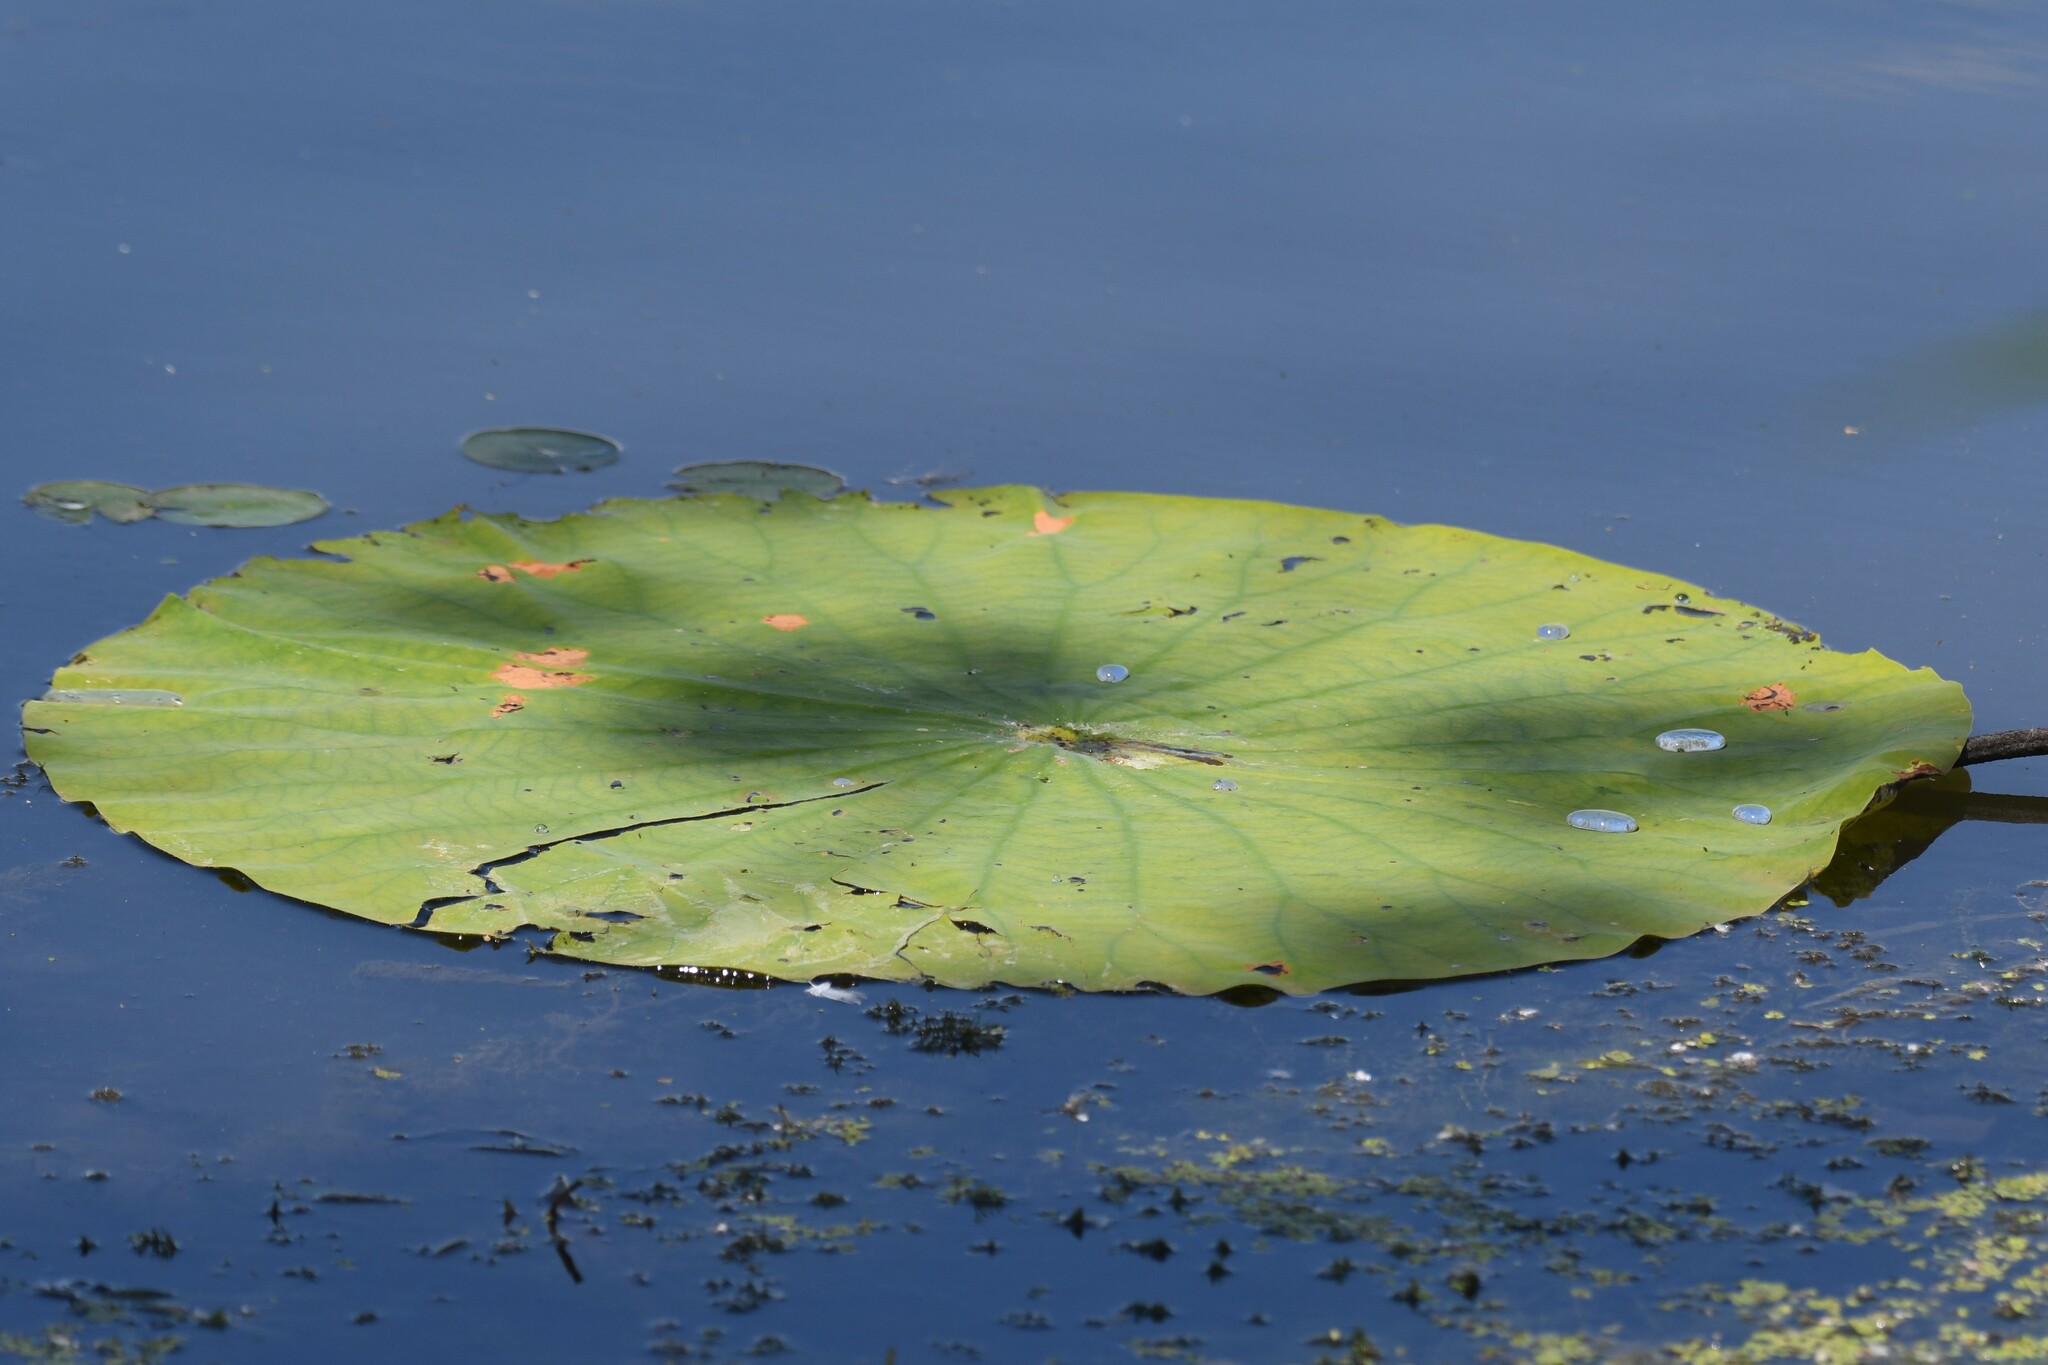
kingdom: Plantae
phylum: Tracheophyta
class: Magnoliopsida
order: Proteales
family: Nelumbonaceae
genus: Nelumbo
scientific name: Nelumbo lutea
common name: American lotus
